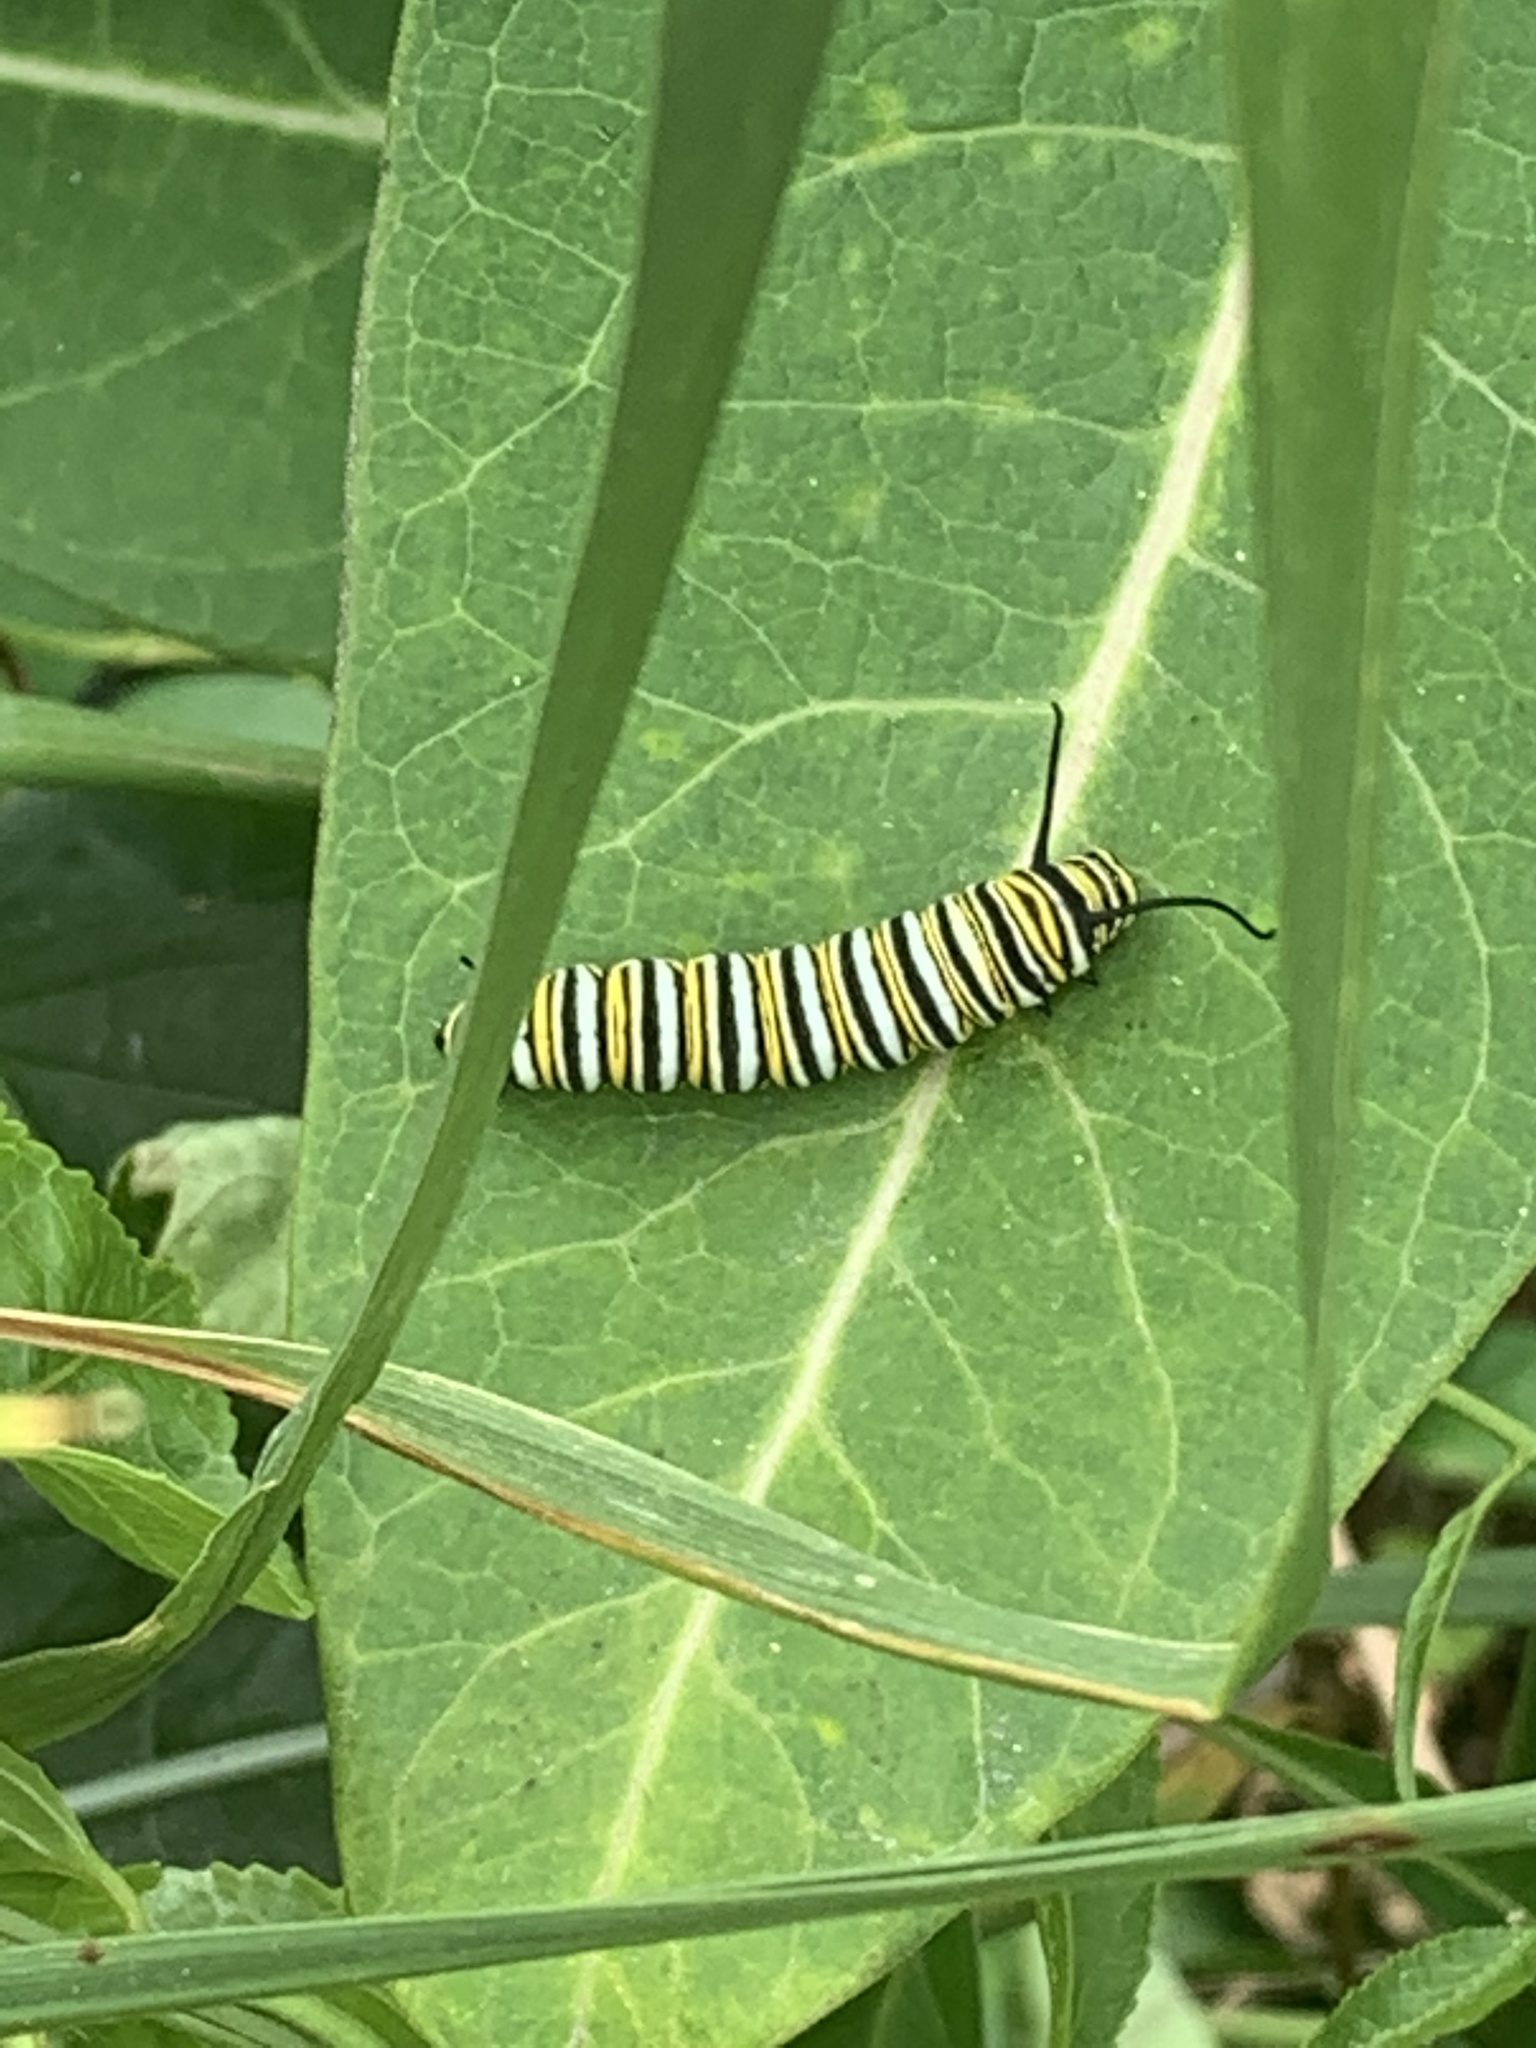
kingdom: Animalia
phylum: Arthropoda
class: Insecta
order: Lepidoptera
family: Nymphalidae
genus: Danaus
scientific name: Danaus plexippus
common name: Monarch
